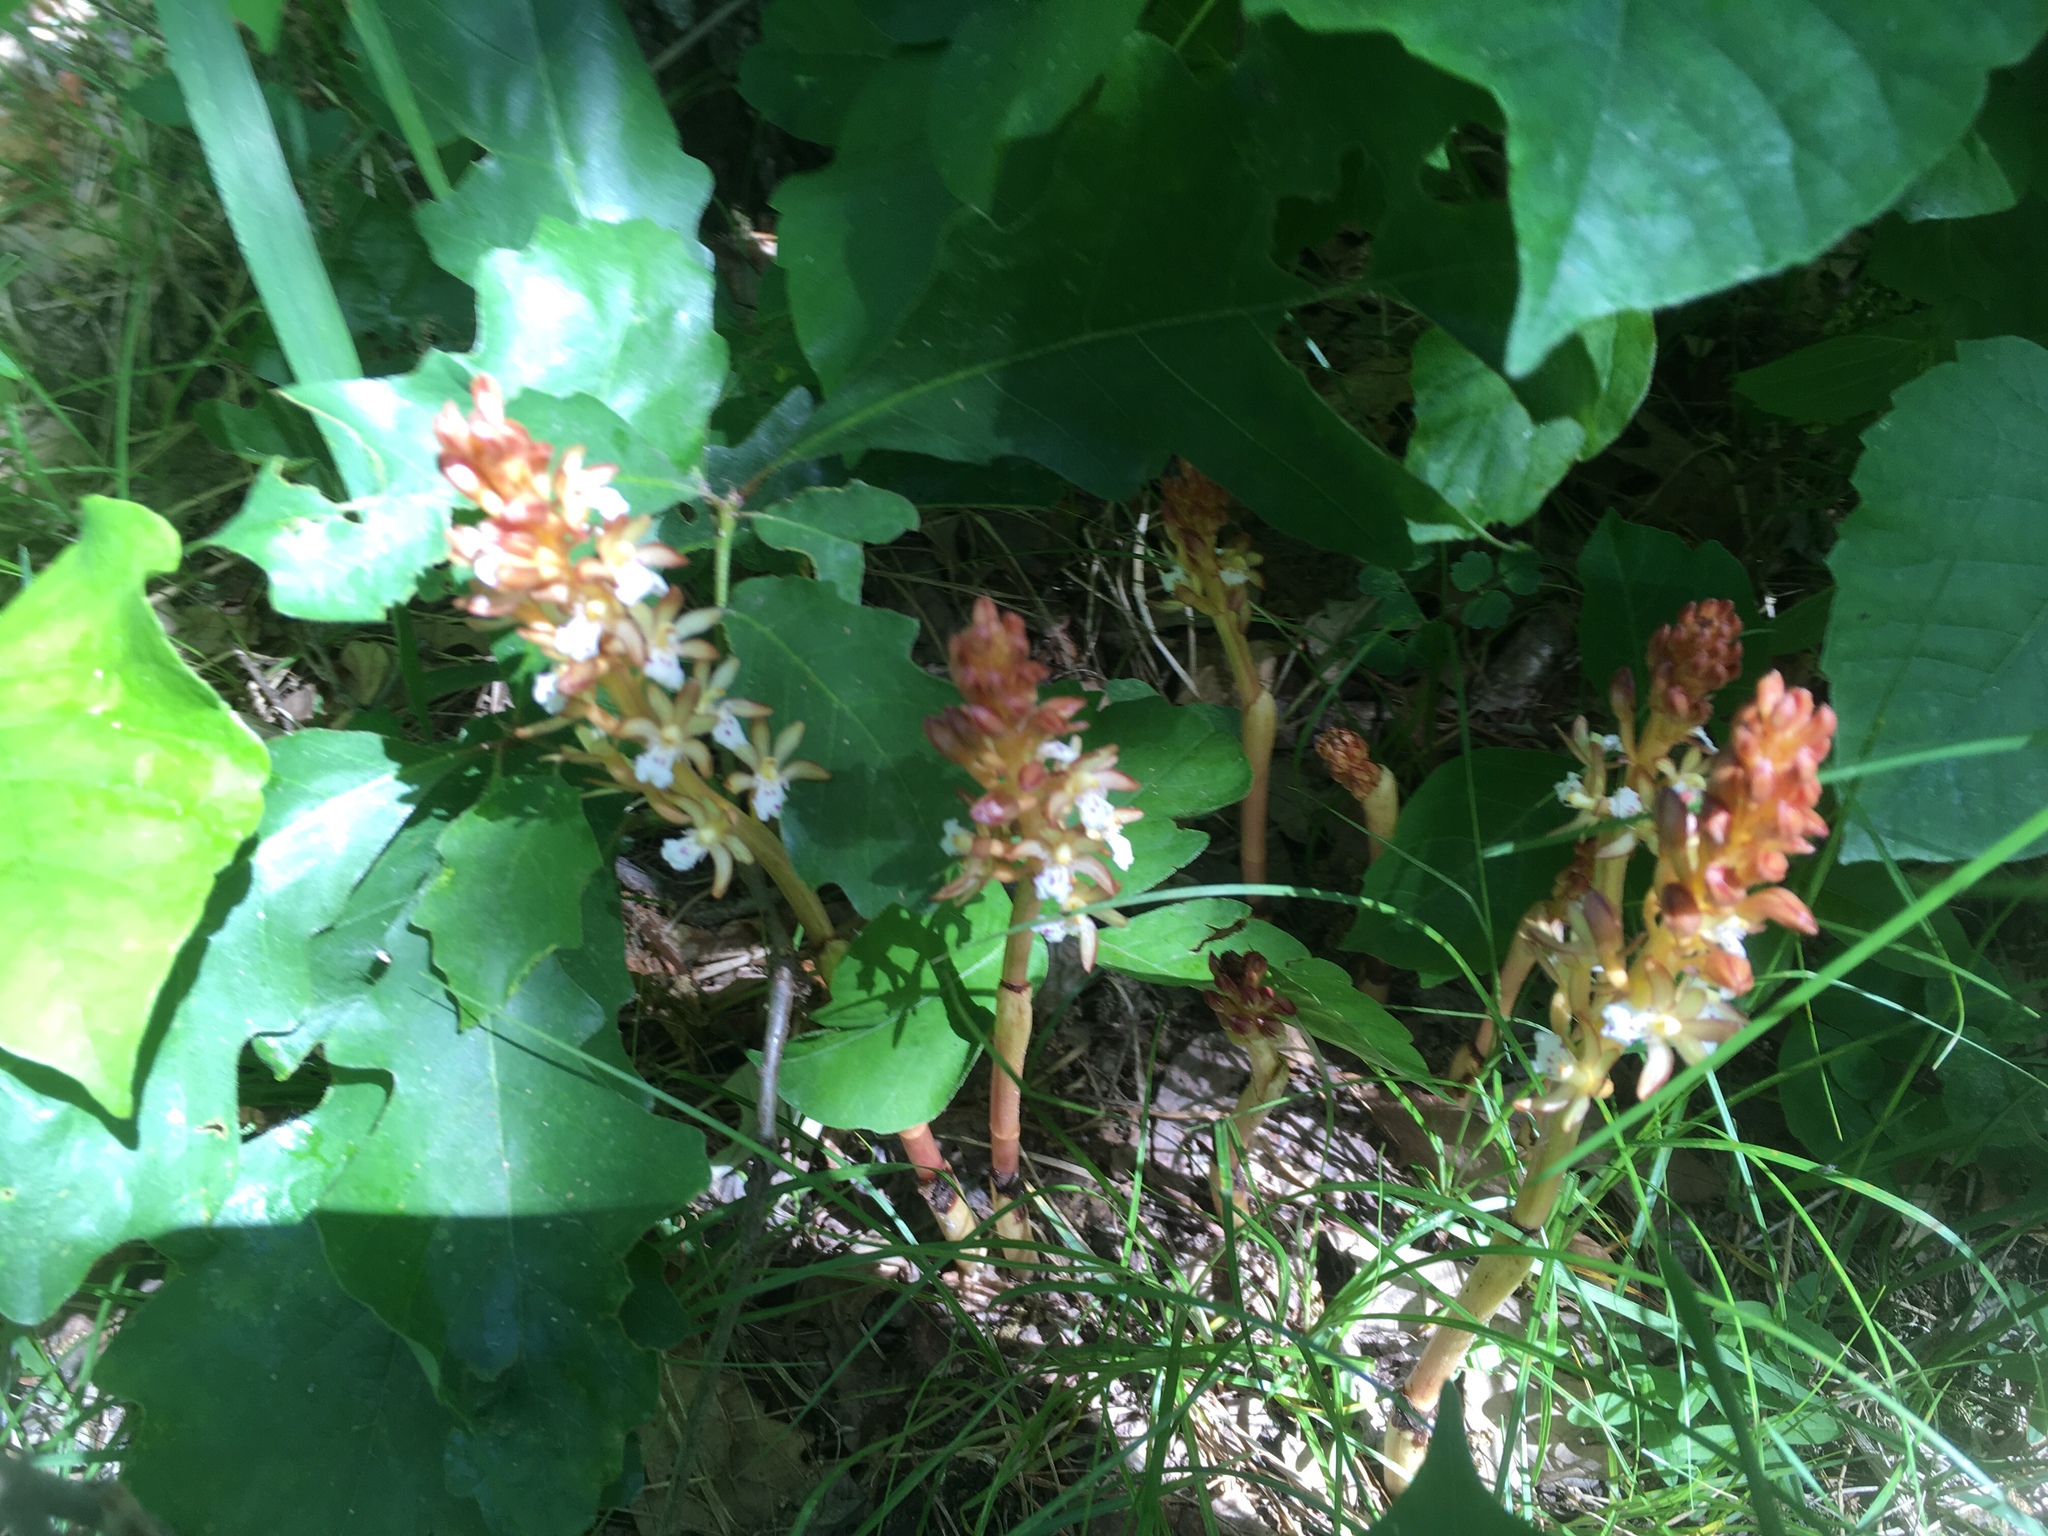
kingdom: Plantae
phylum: Tracheophyta
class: Liliopsida
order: Asparagales
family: Orchidaceae
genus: Corallorhiza
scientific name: Corallorhiza maculata
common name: Spotted coralroot
